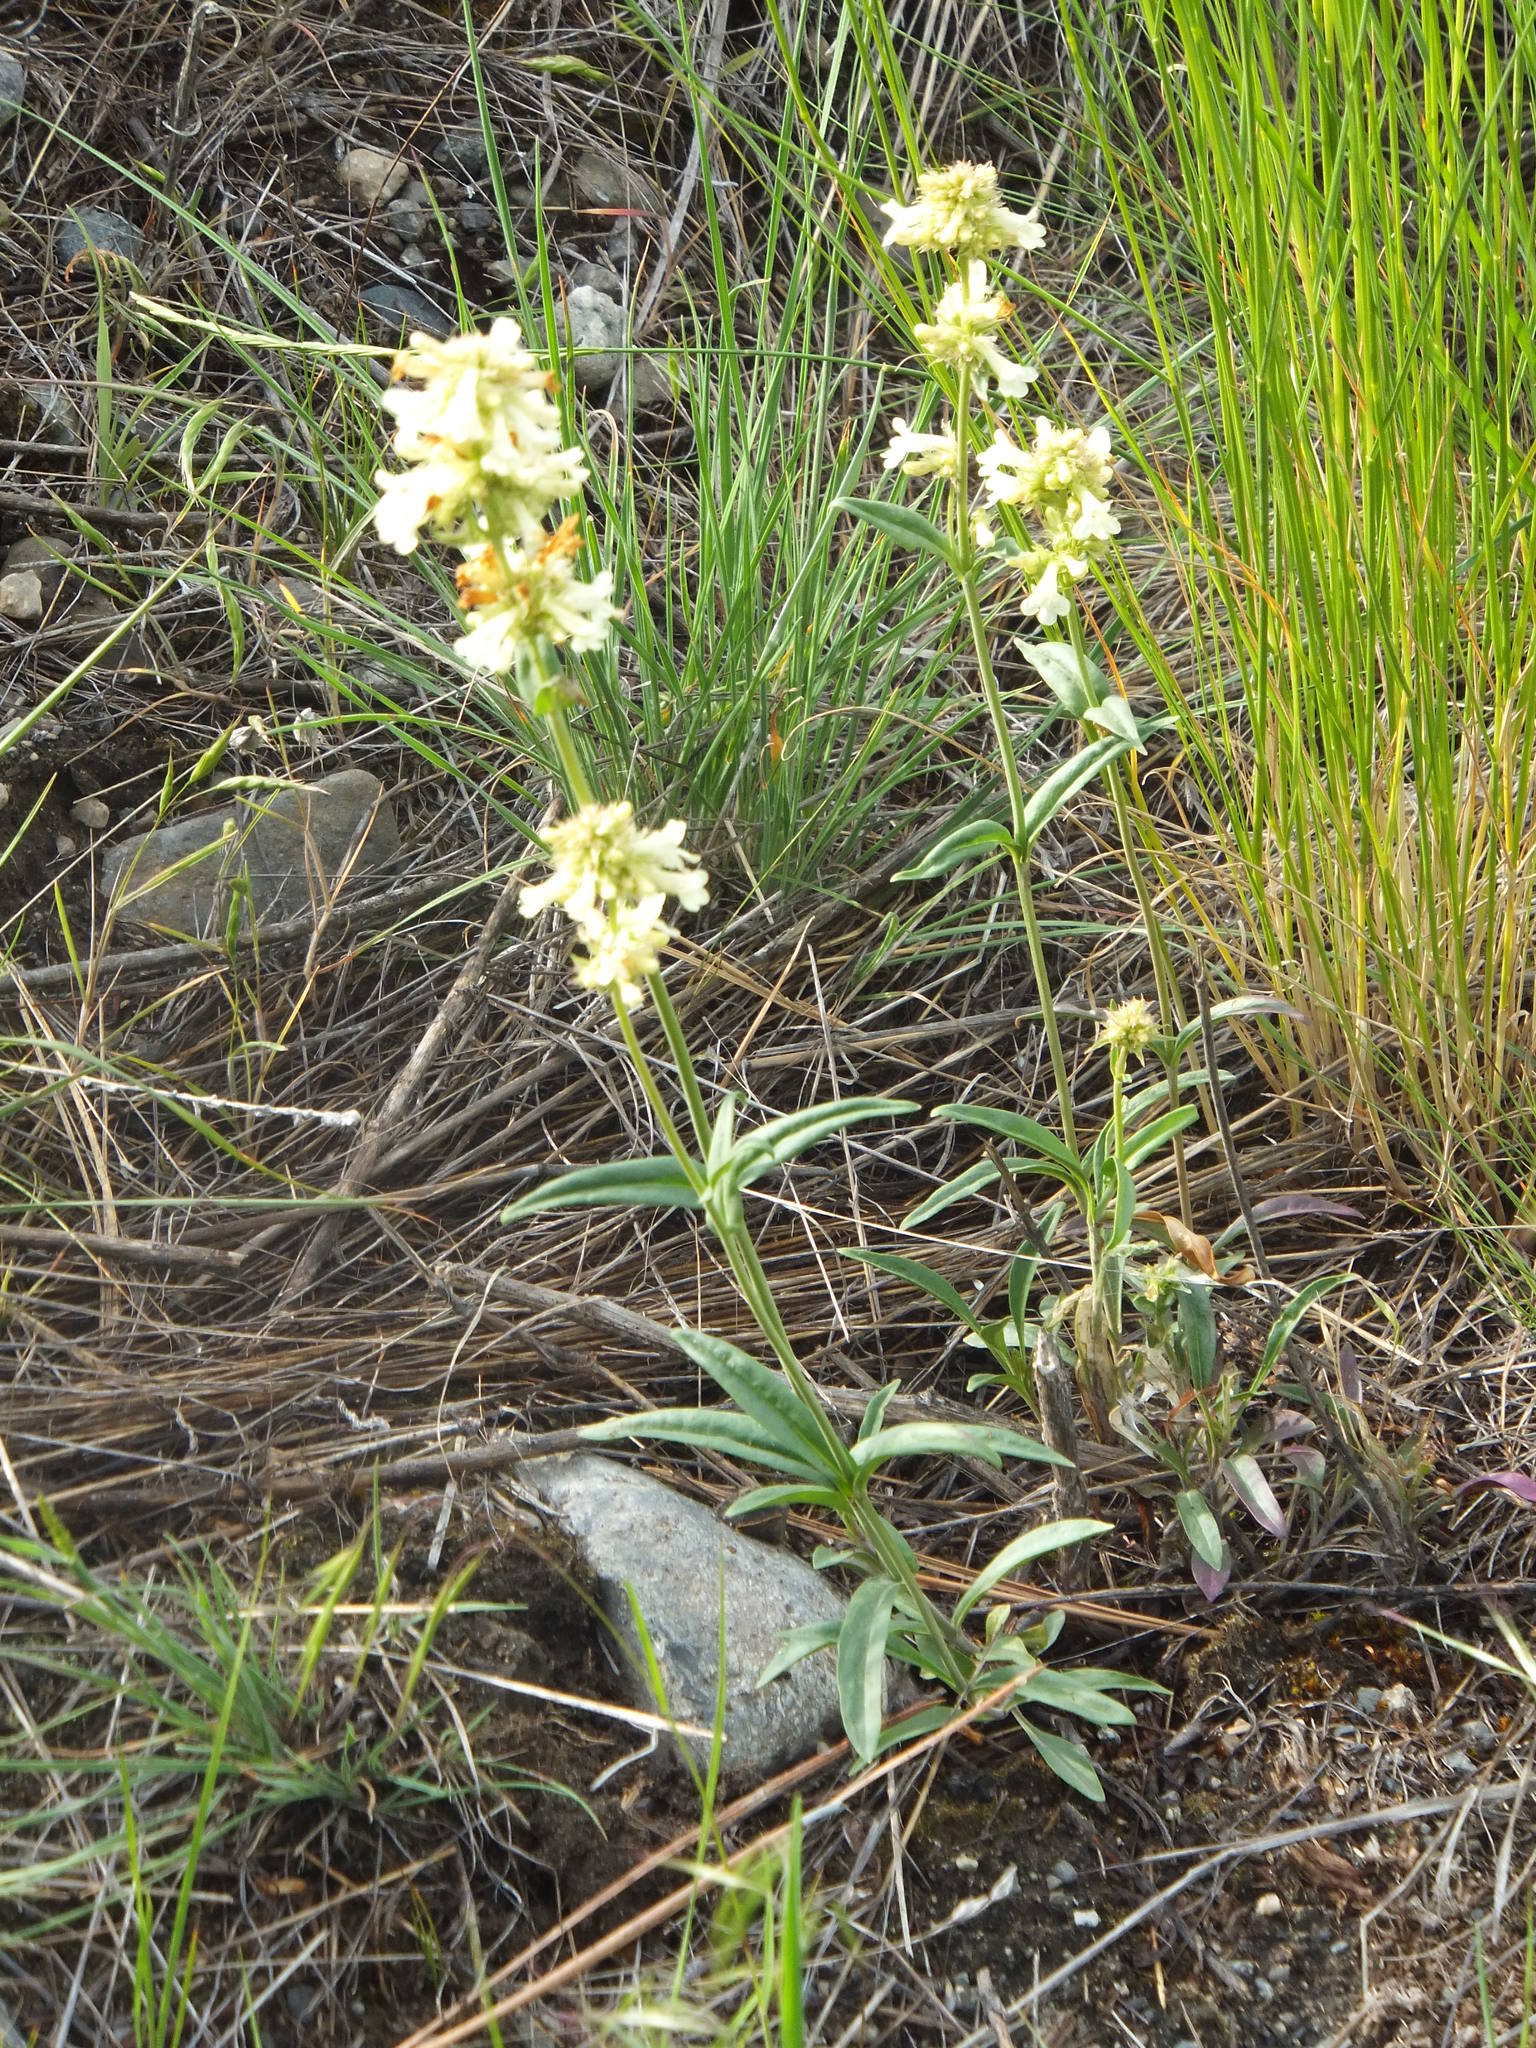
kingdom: Plantae
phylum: Tracheophyta
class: Magnoliopsida
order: Lamiales
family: Plantaginaceae
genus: Penstemon
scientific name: Penstemon confertus
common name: Lesser yellow beardtongue
